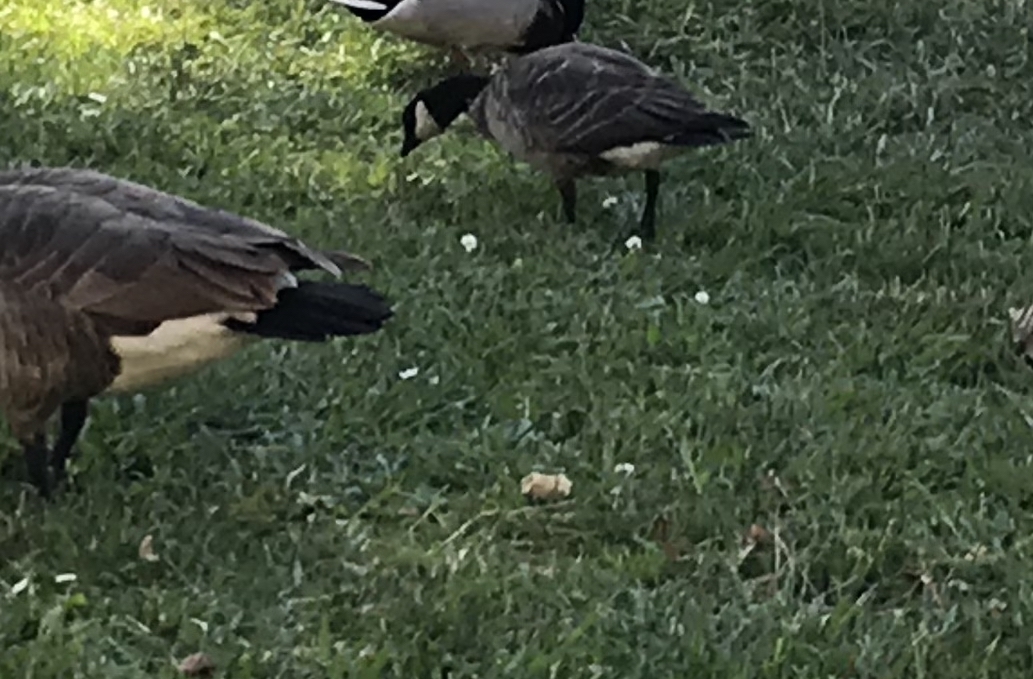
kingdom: Animalia
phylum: Chordata
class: Aves
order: Anseriformes
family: Anatidae
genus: Branta
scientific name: Branta hutchinsii
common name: Cackling goose
